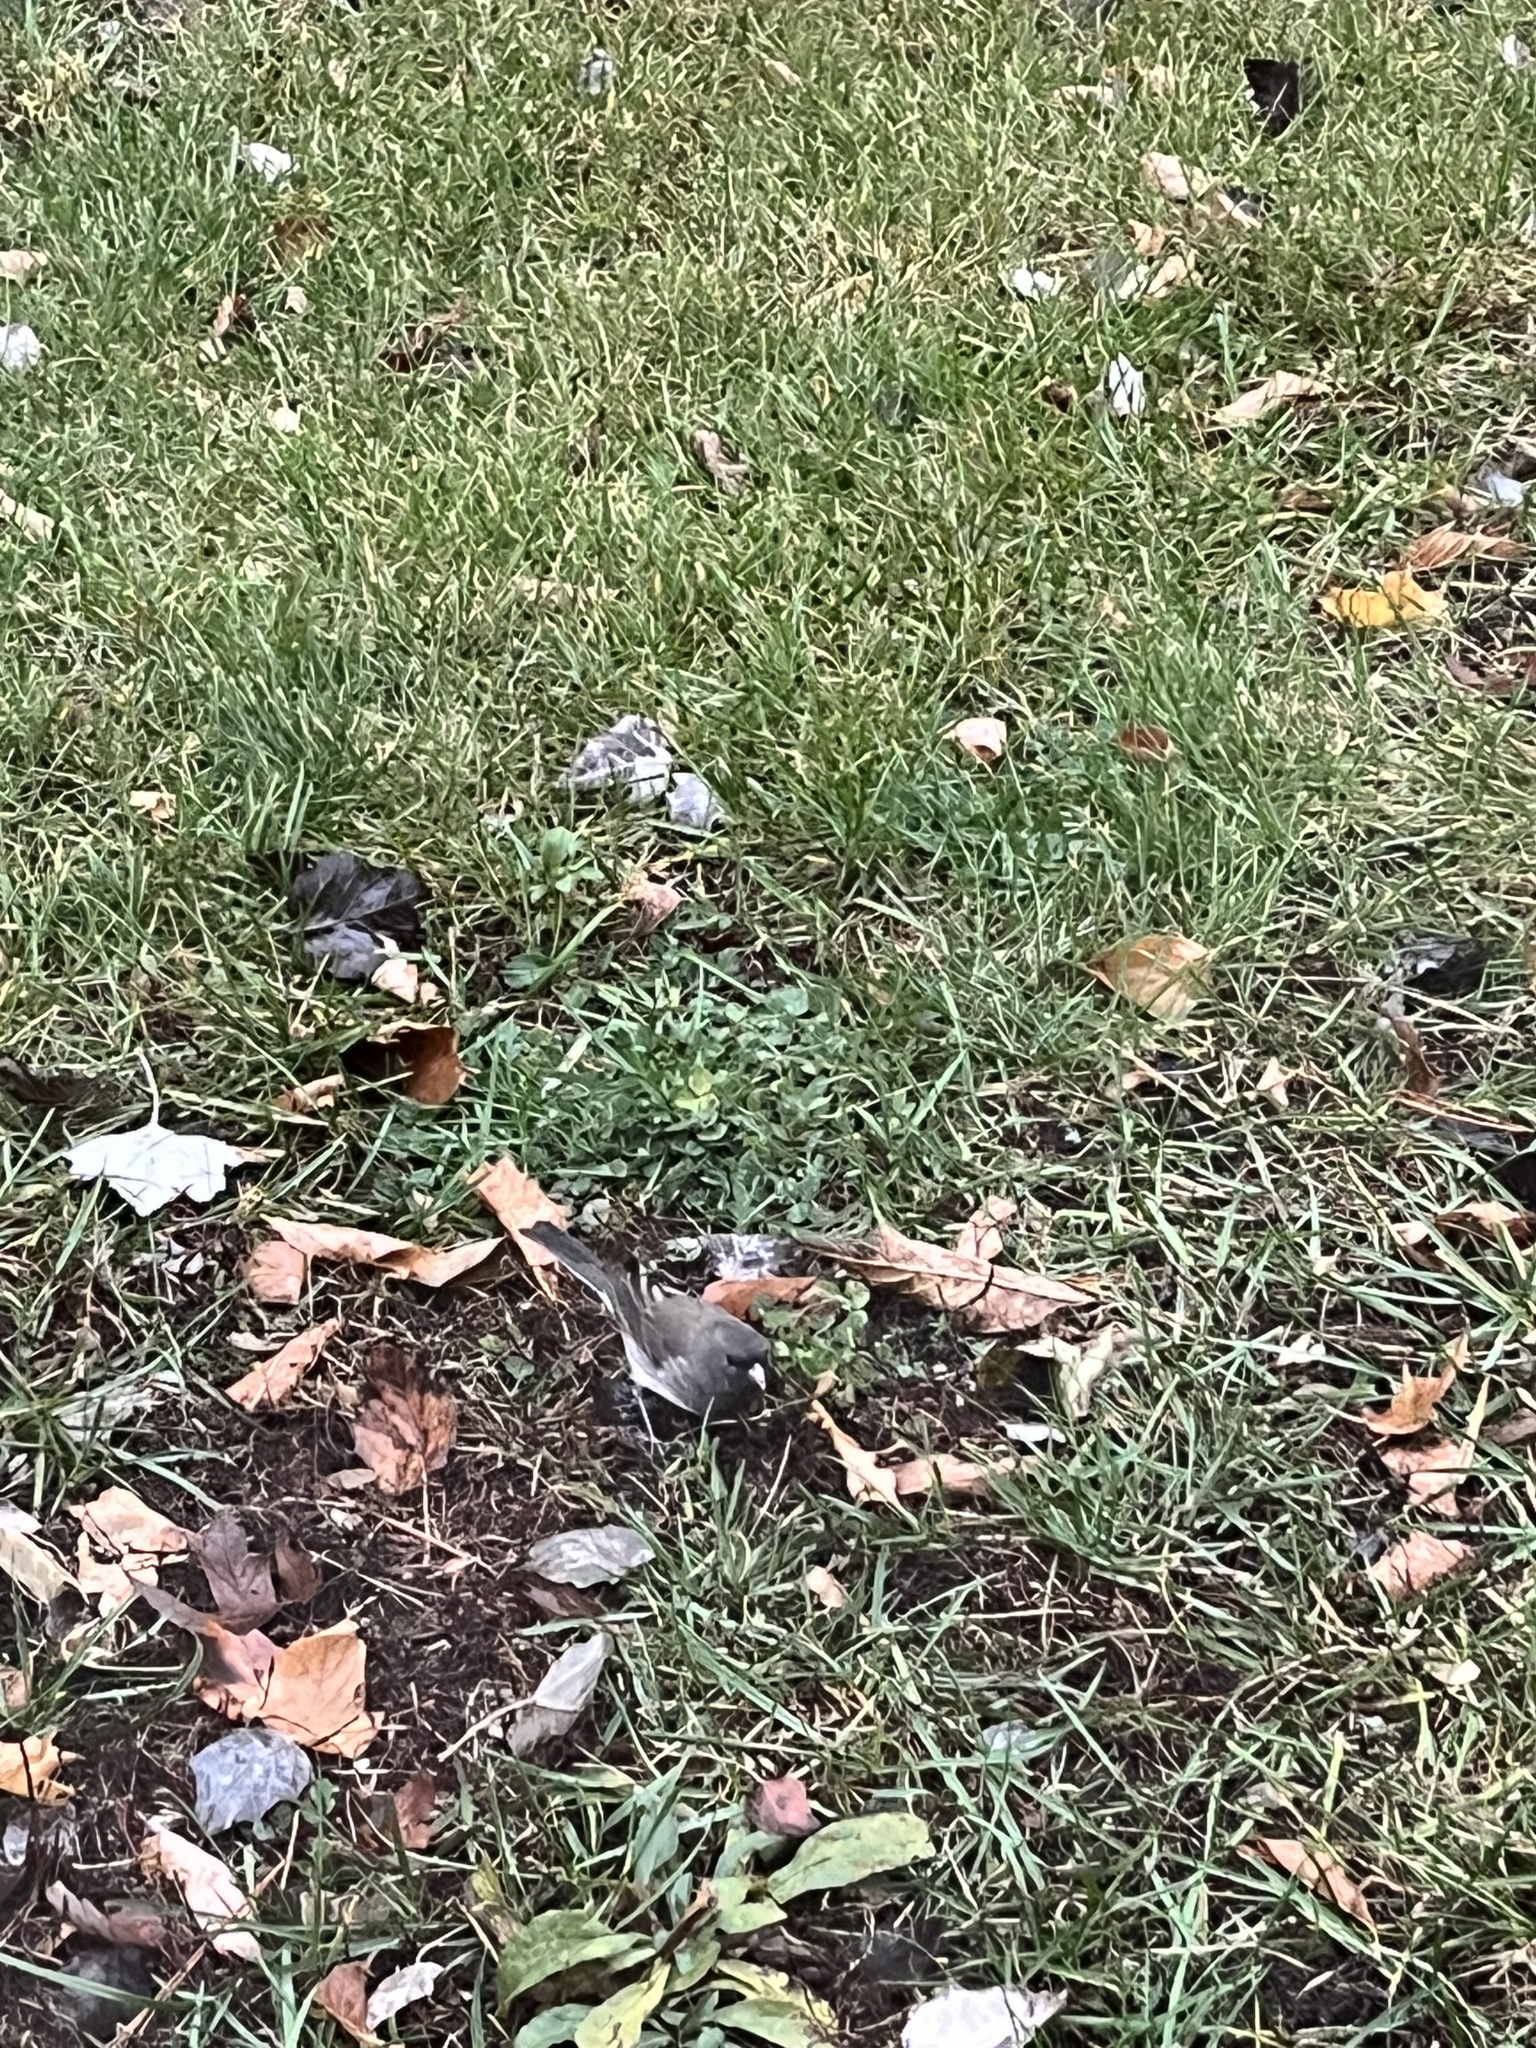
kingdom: Animalia
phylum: Chordata
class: Aves
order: Passeriformes
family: Passerellidae
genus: Junco
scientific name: Junco hyemalis
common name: Dark-eyed junco
